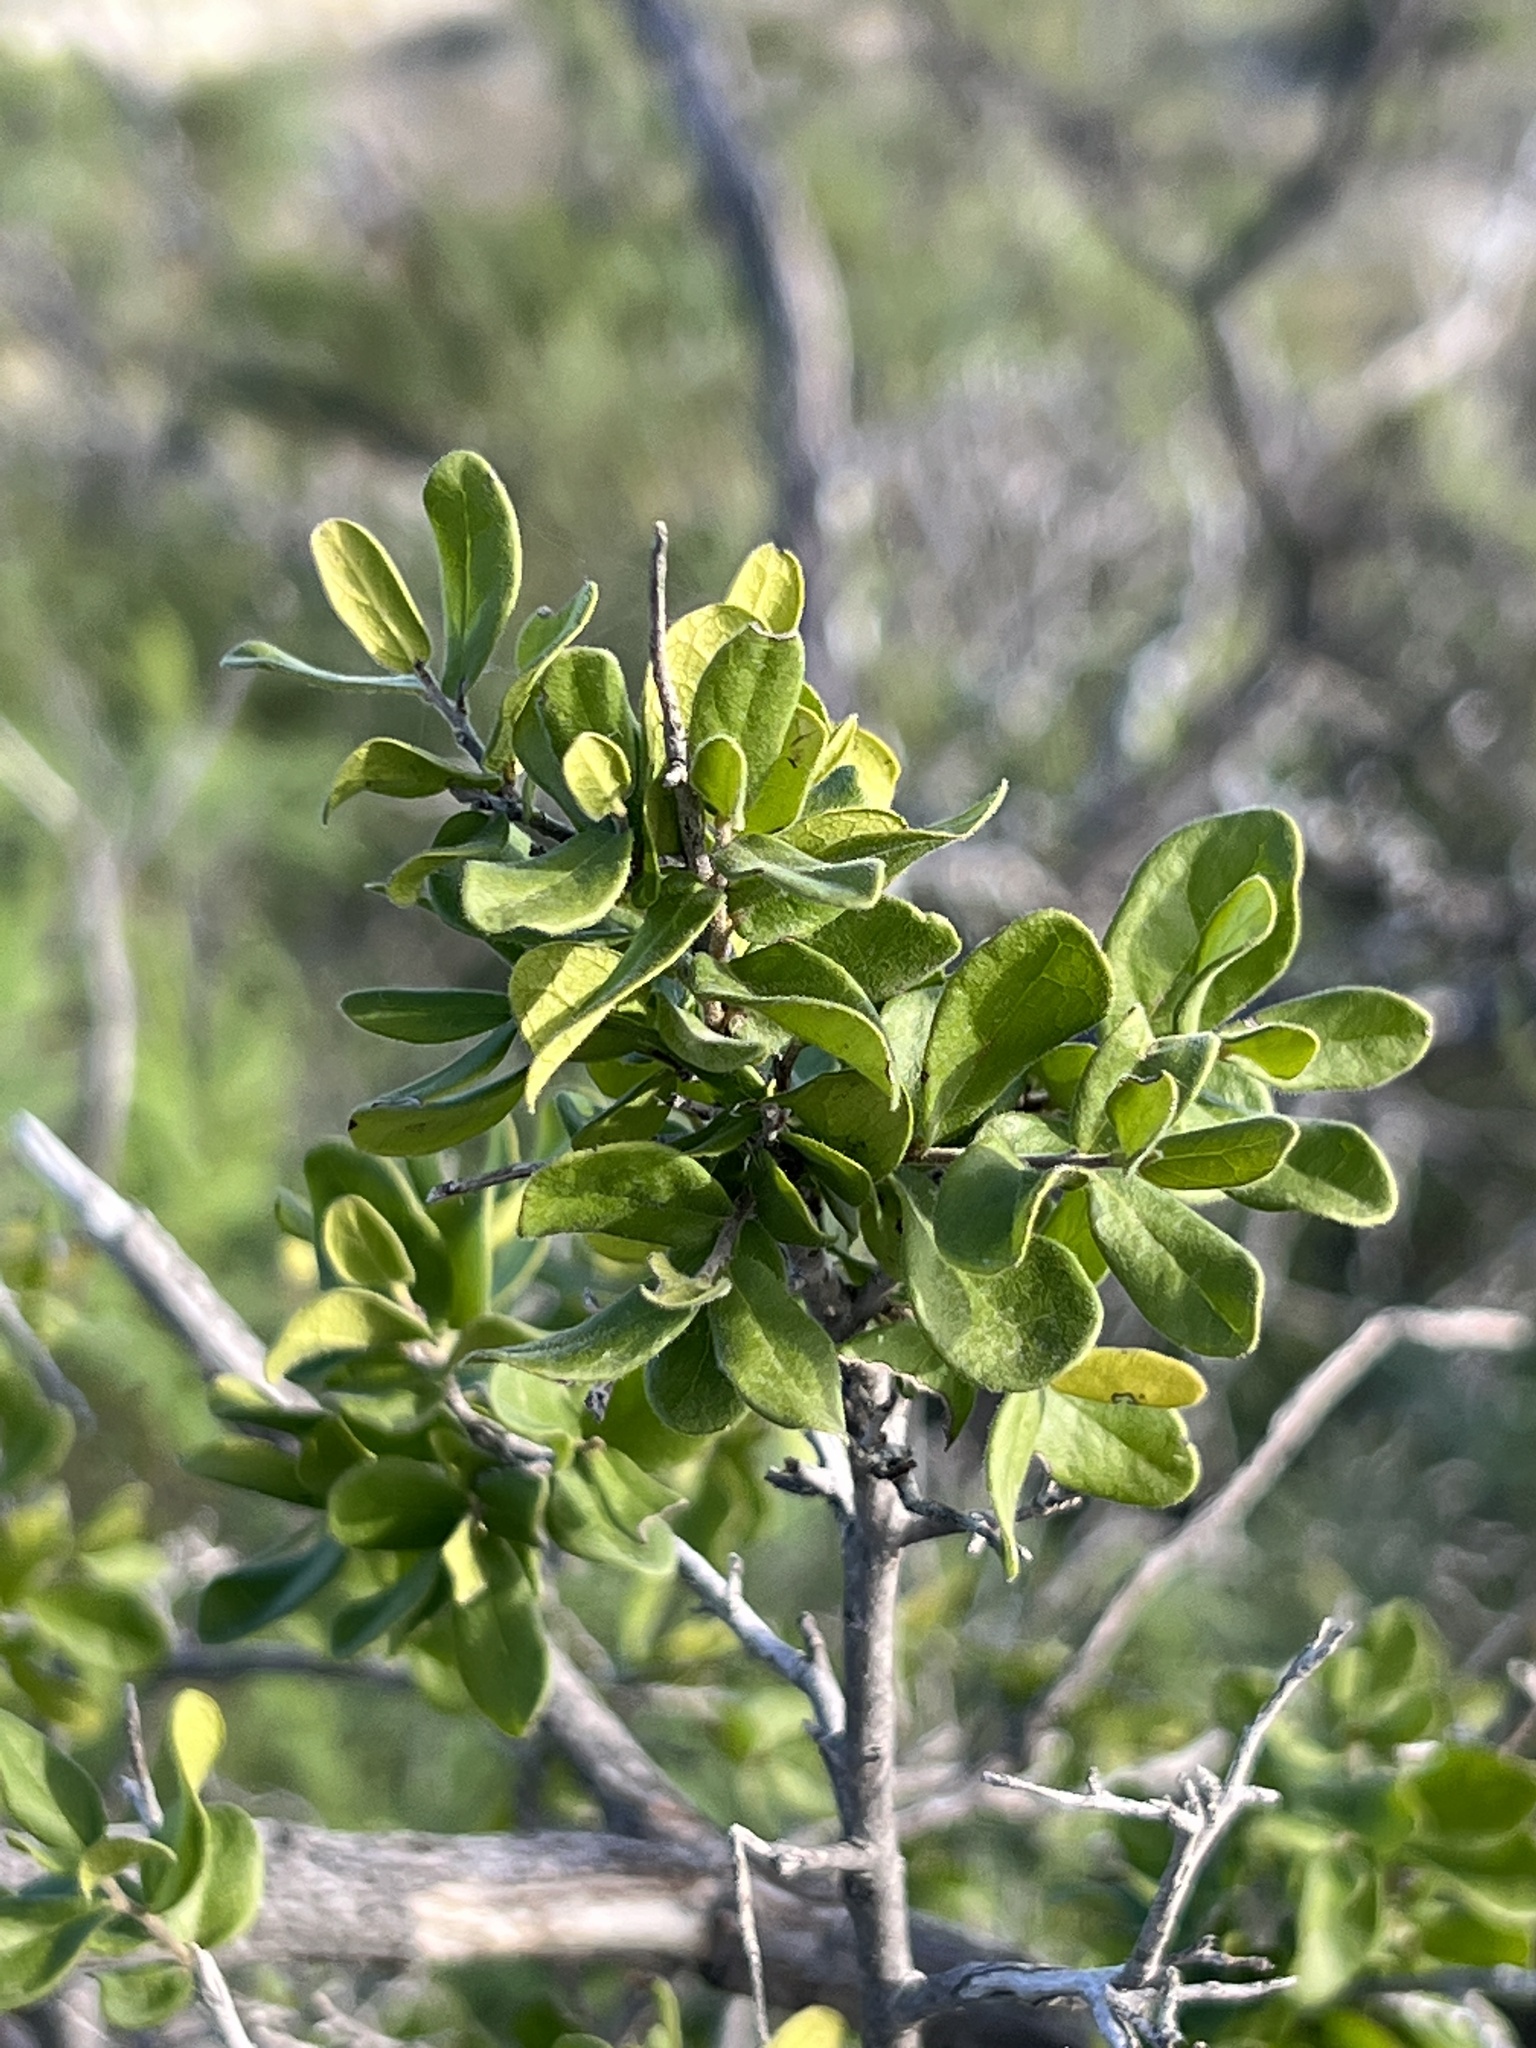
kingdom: Plantae
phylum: Tracheophyta
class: Magnoliopsida
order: Ericales
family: Ebenaceae
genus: Diospyros
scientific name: Diospyros texana
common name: Texas persimmon
